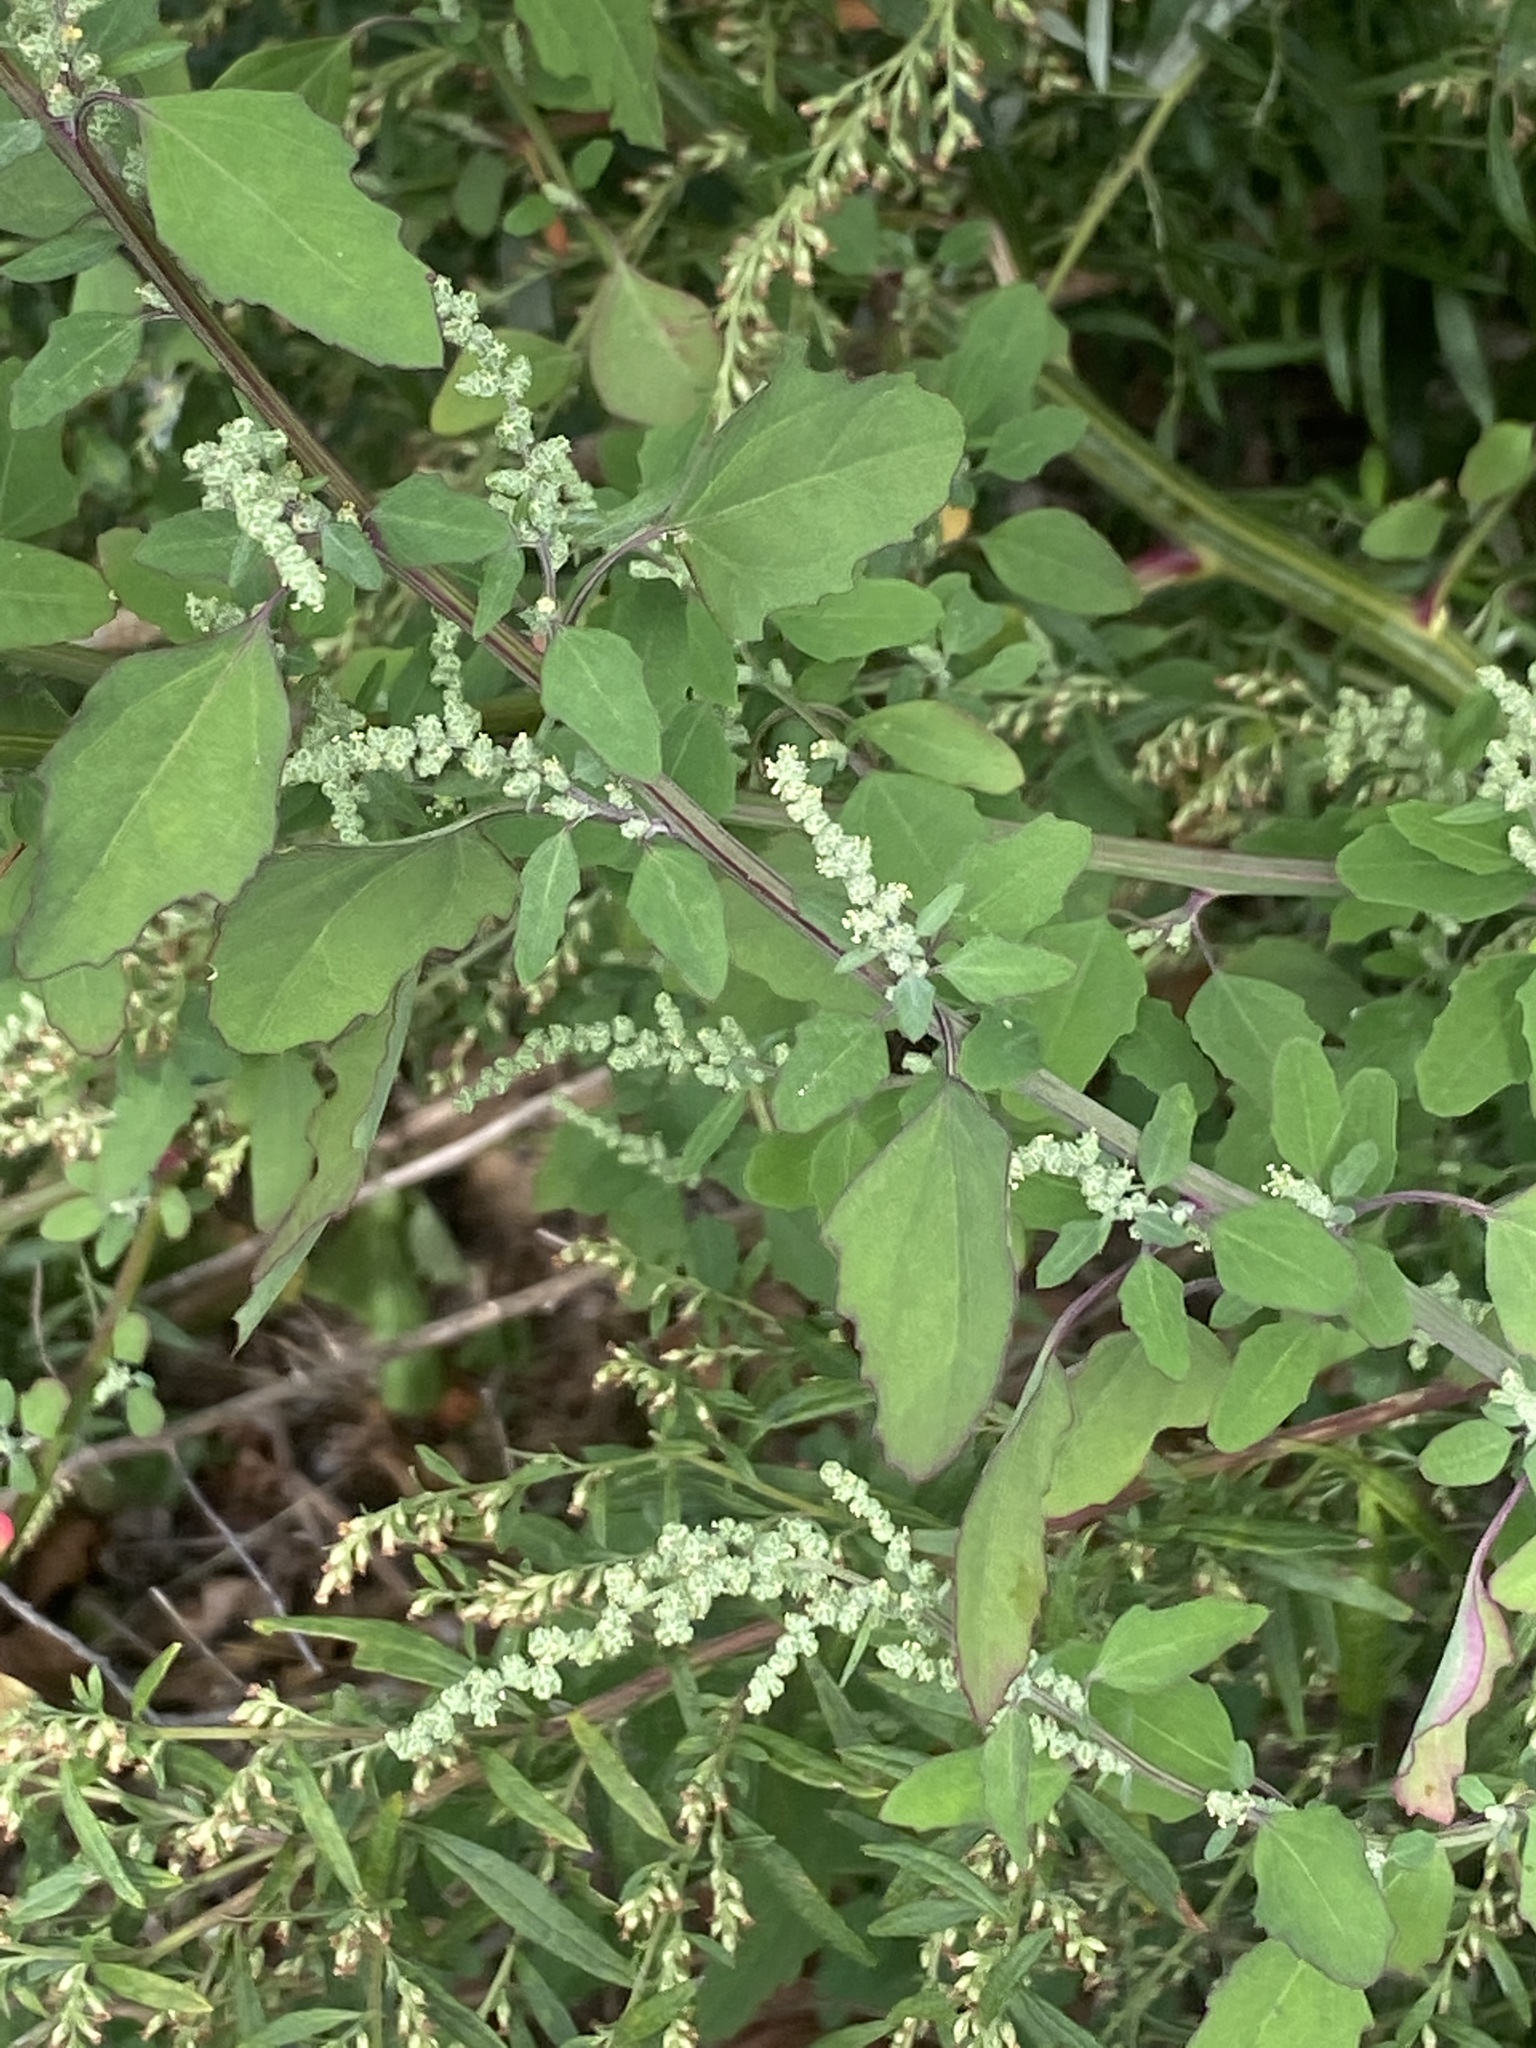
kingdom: Plantae
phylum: Tracheophyta
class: Magnoliopsida
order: Caryophyllales
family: Amaranthaceae
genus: Chenopodium
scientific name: Chenopodium album
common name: Fat-hen
